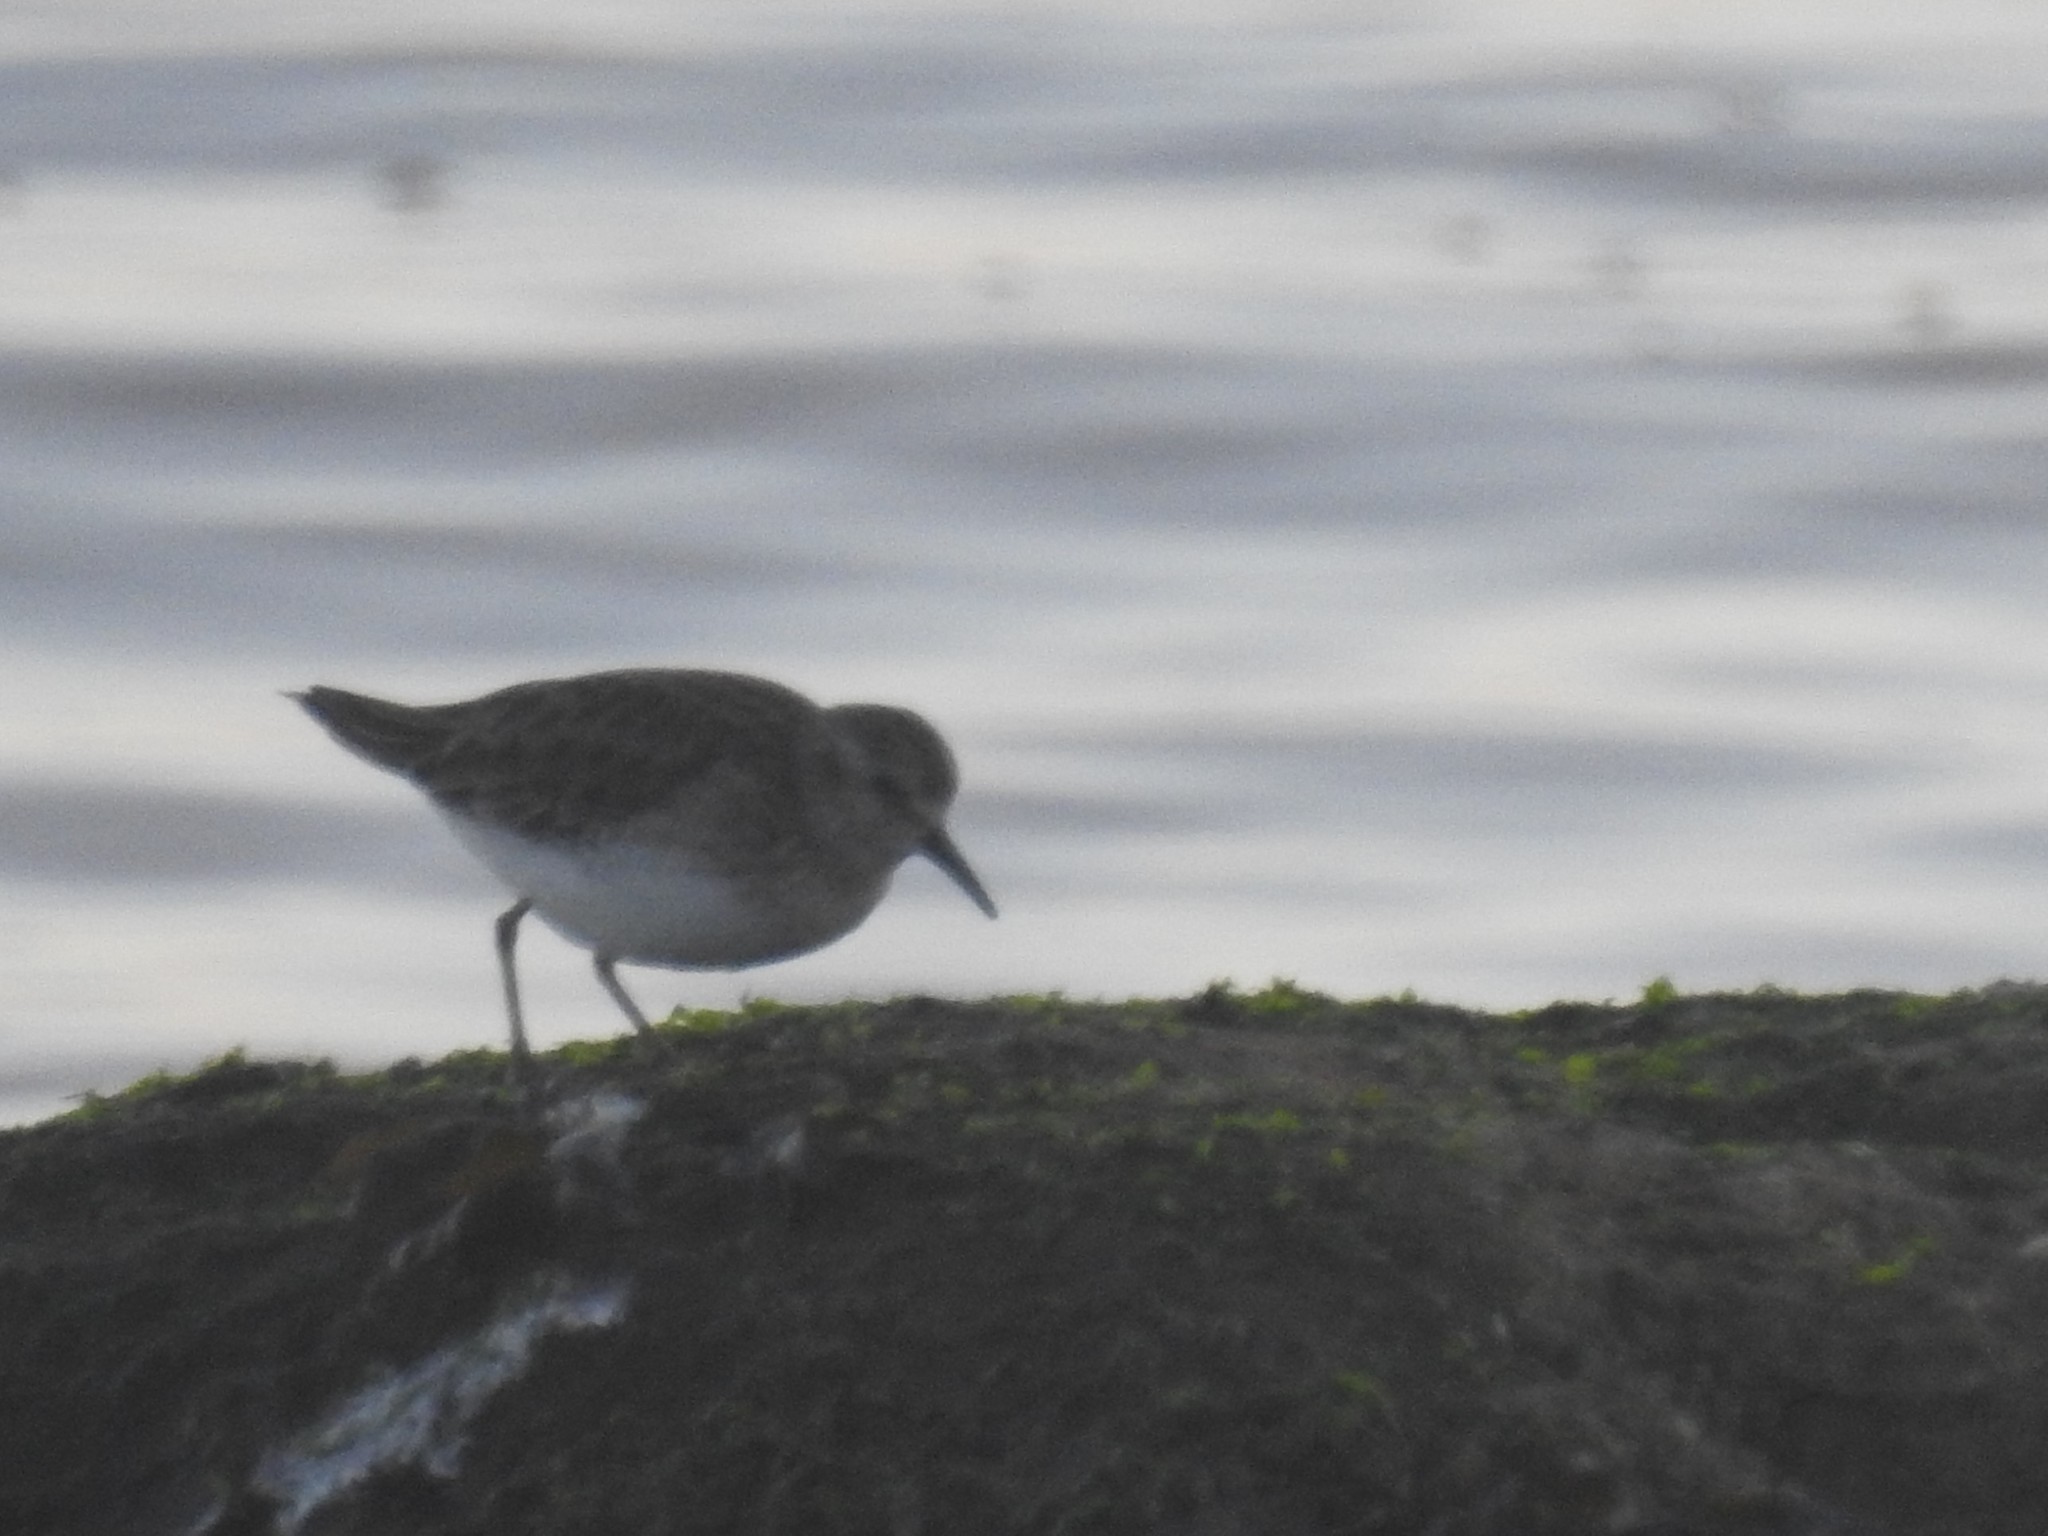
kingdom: Animalia
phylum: Chordata
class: Aves
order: Charadriiformes
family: Scolopacidae
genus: Calidris
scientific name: Calidris minutilla
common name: Least sandpiper
